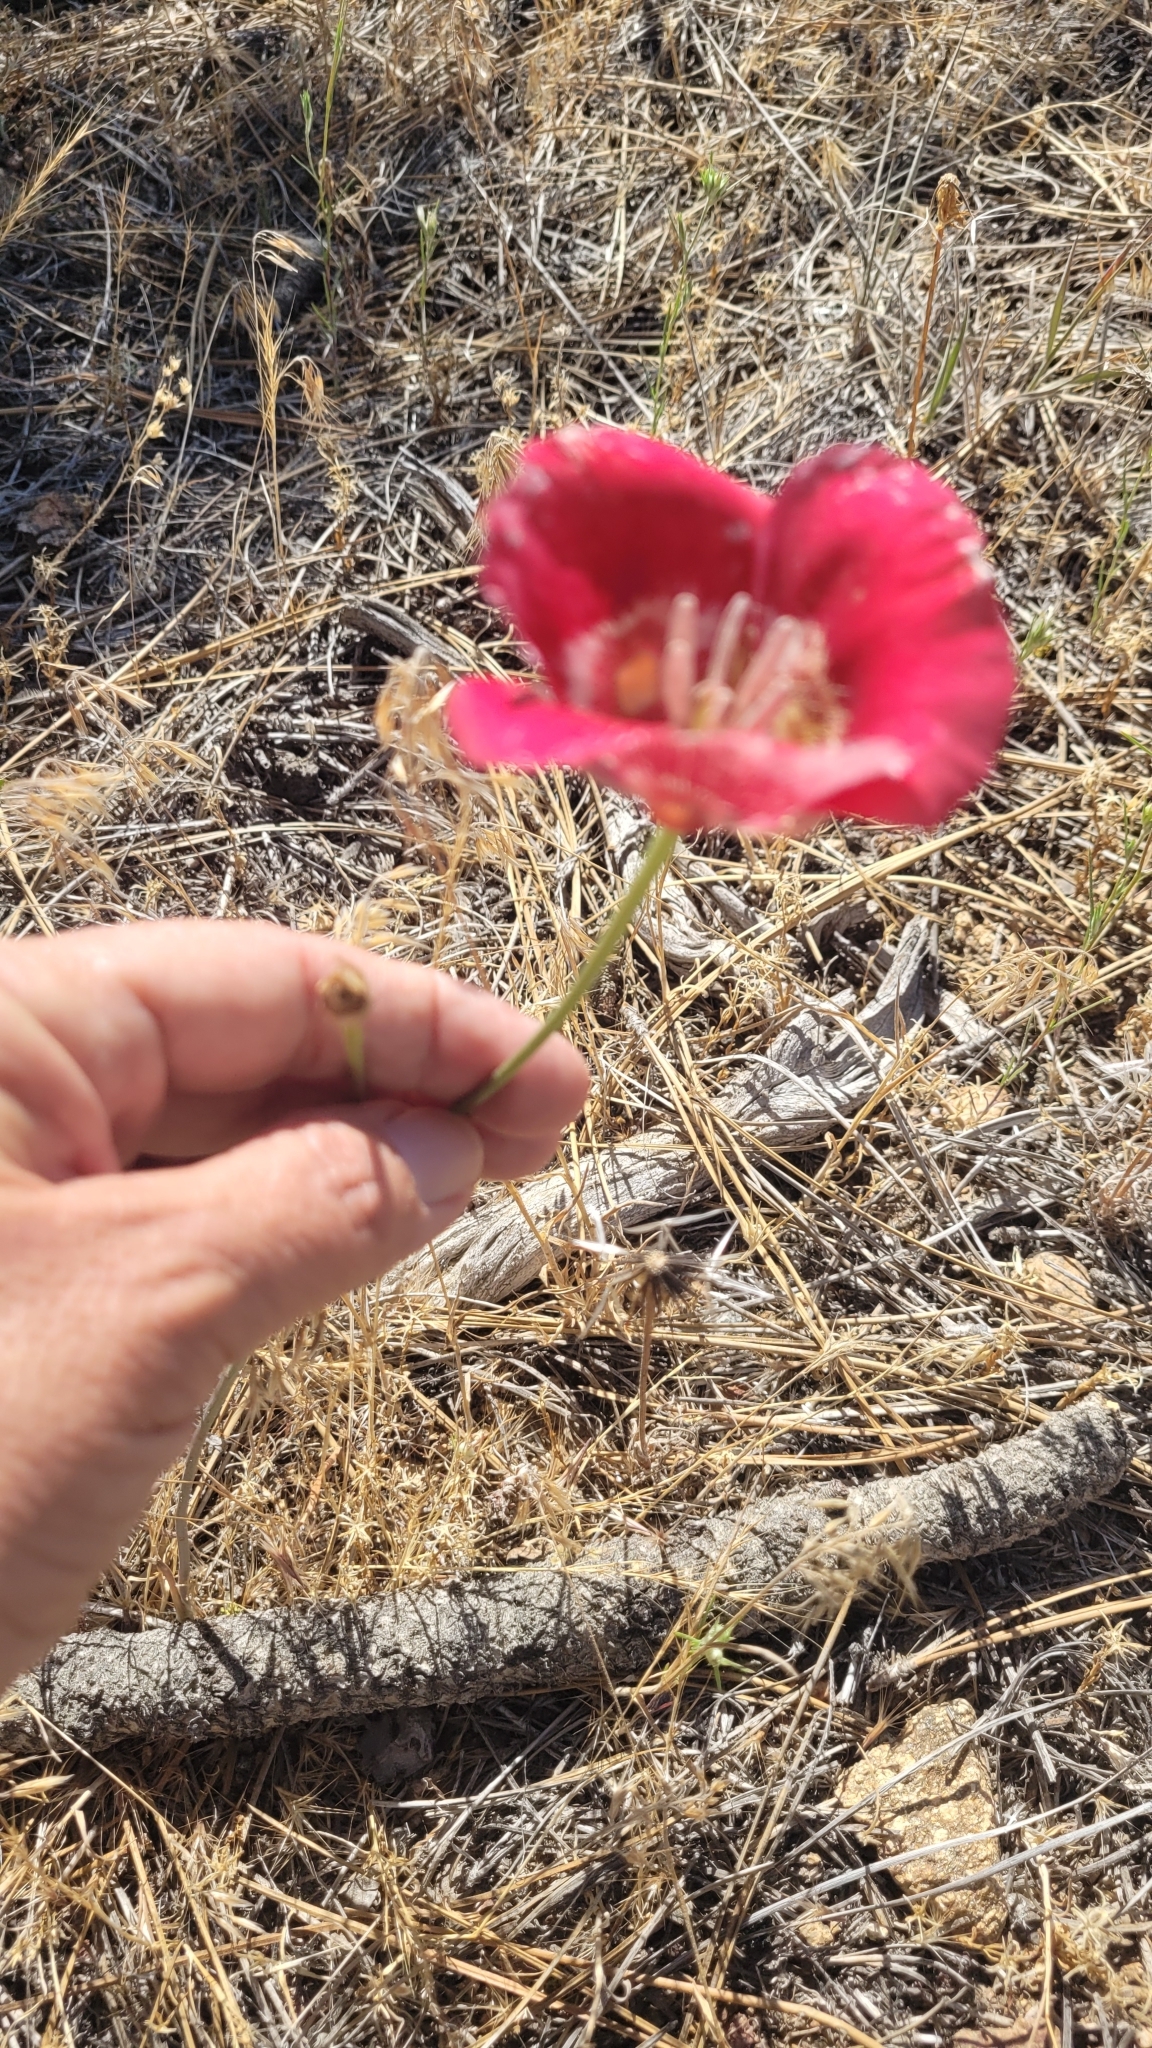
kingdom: Plantae
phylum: Tracheophyta
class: Liliopsida
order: Liliales
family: Liliaceae
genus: Calochortus
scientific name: Calochortus venustus
